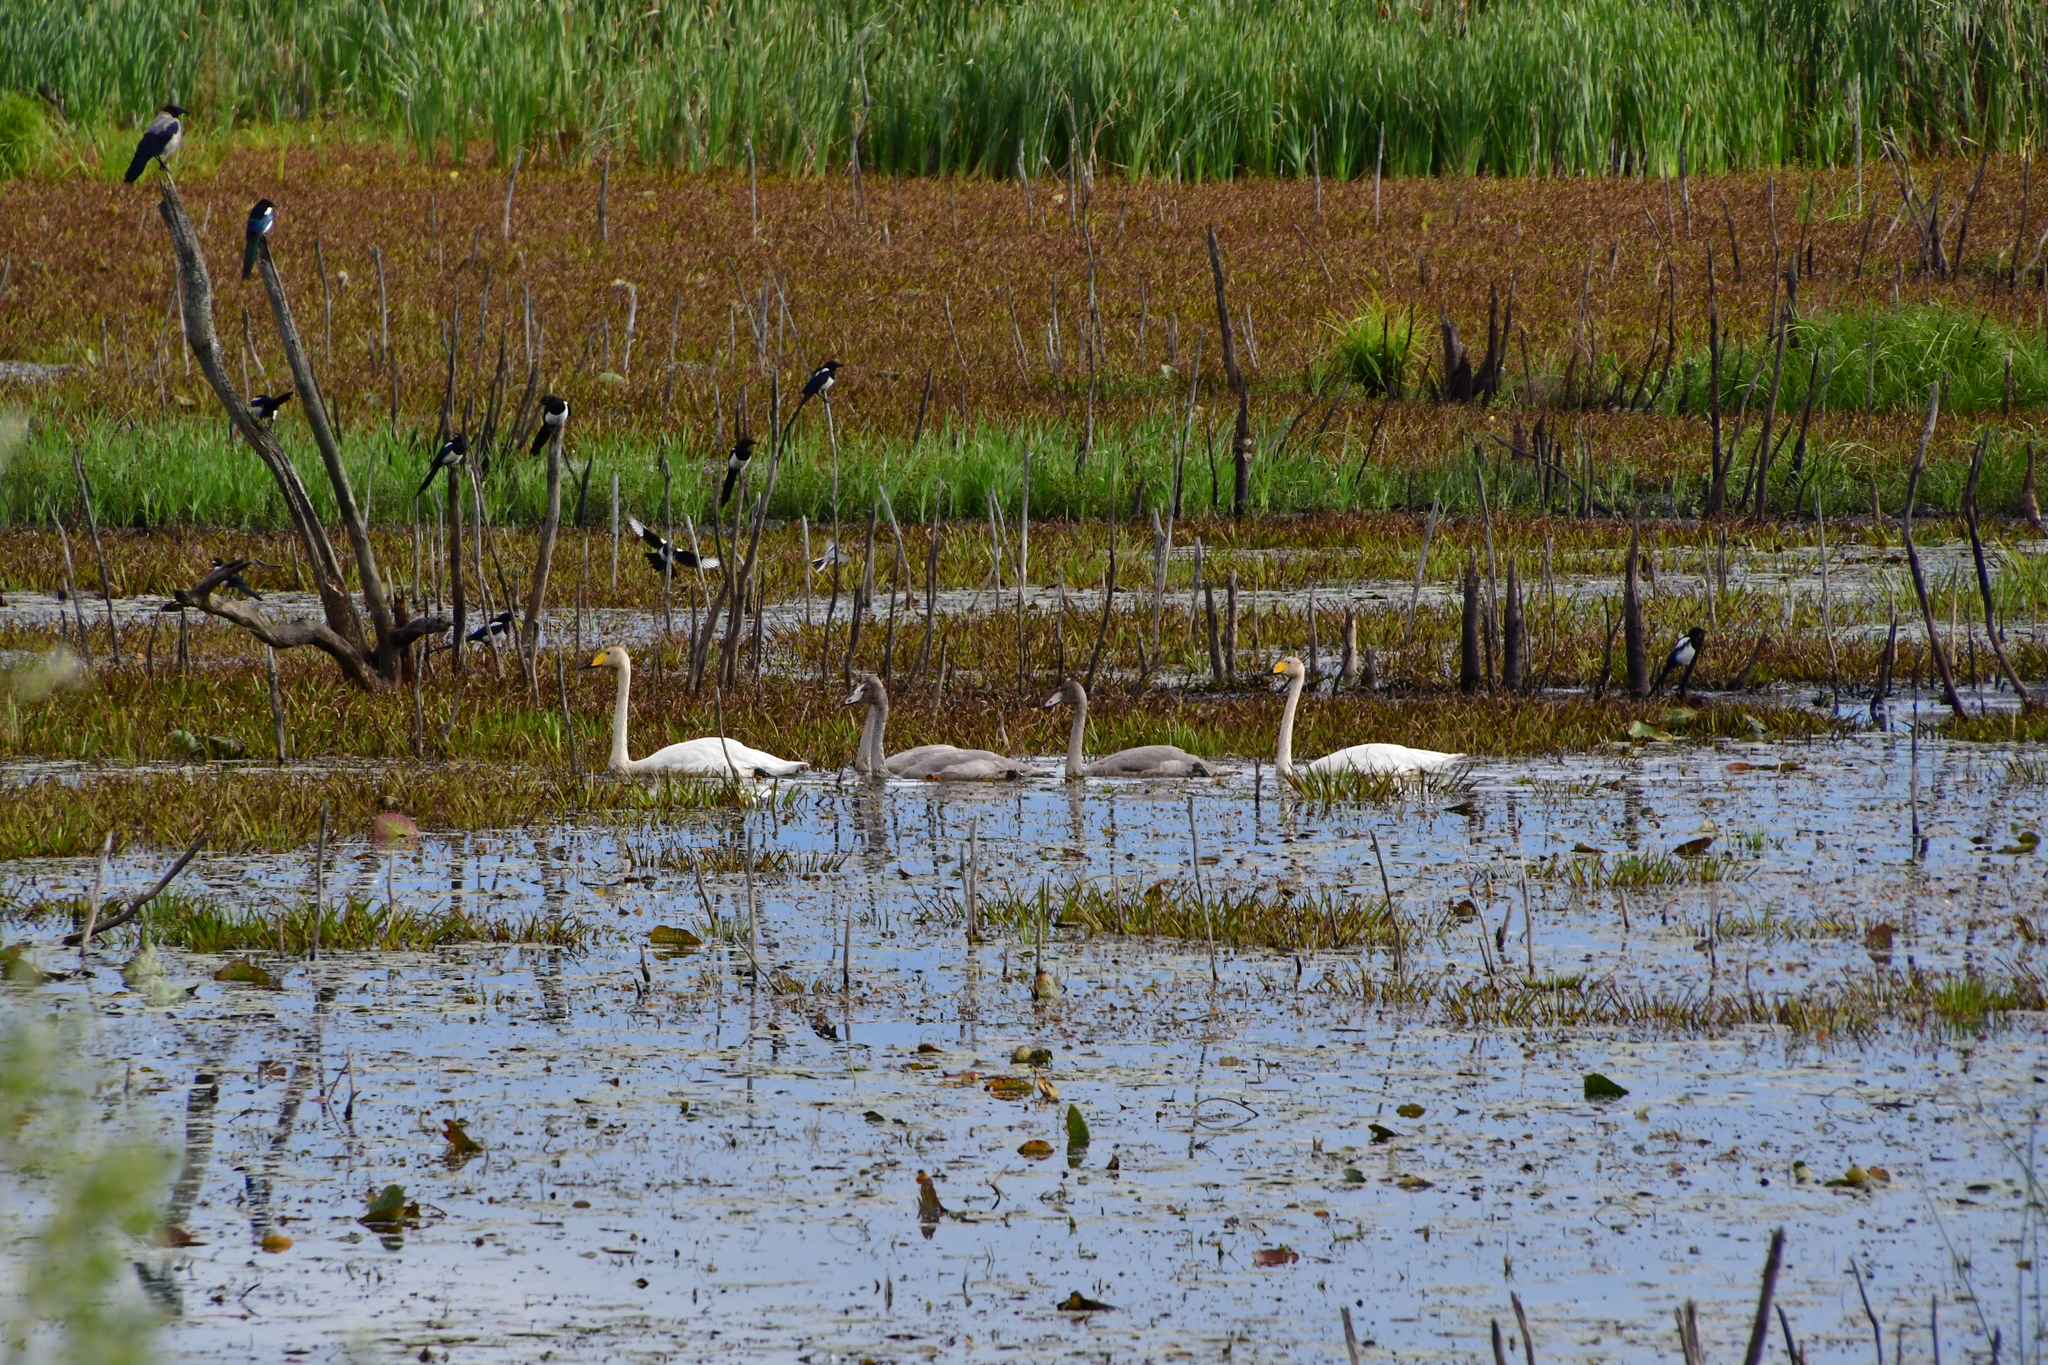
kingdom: Animalia
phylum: Chordata
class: Aves
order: Anseriformes
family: Anatidae
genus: Cygnus
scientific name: Cygnus cygnus
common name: Whooper swan
